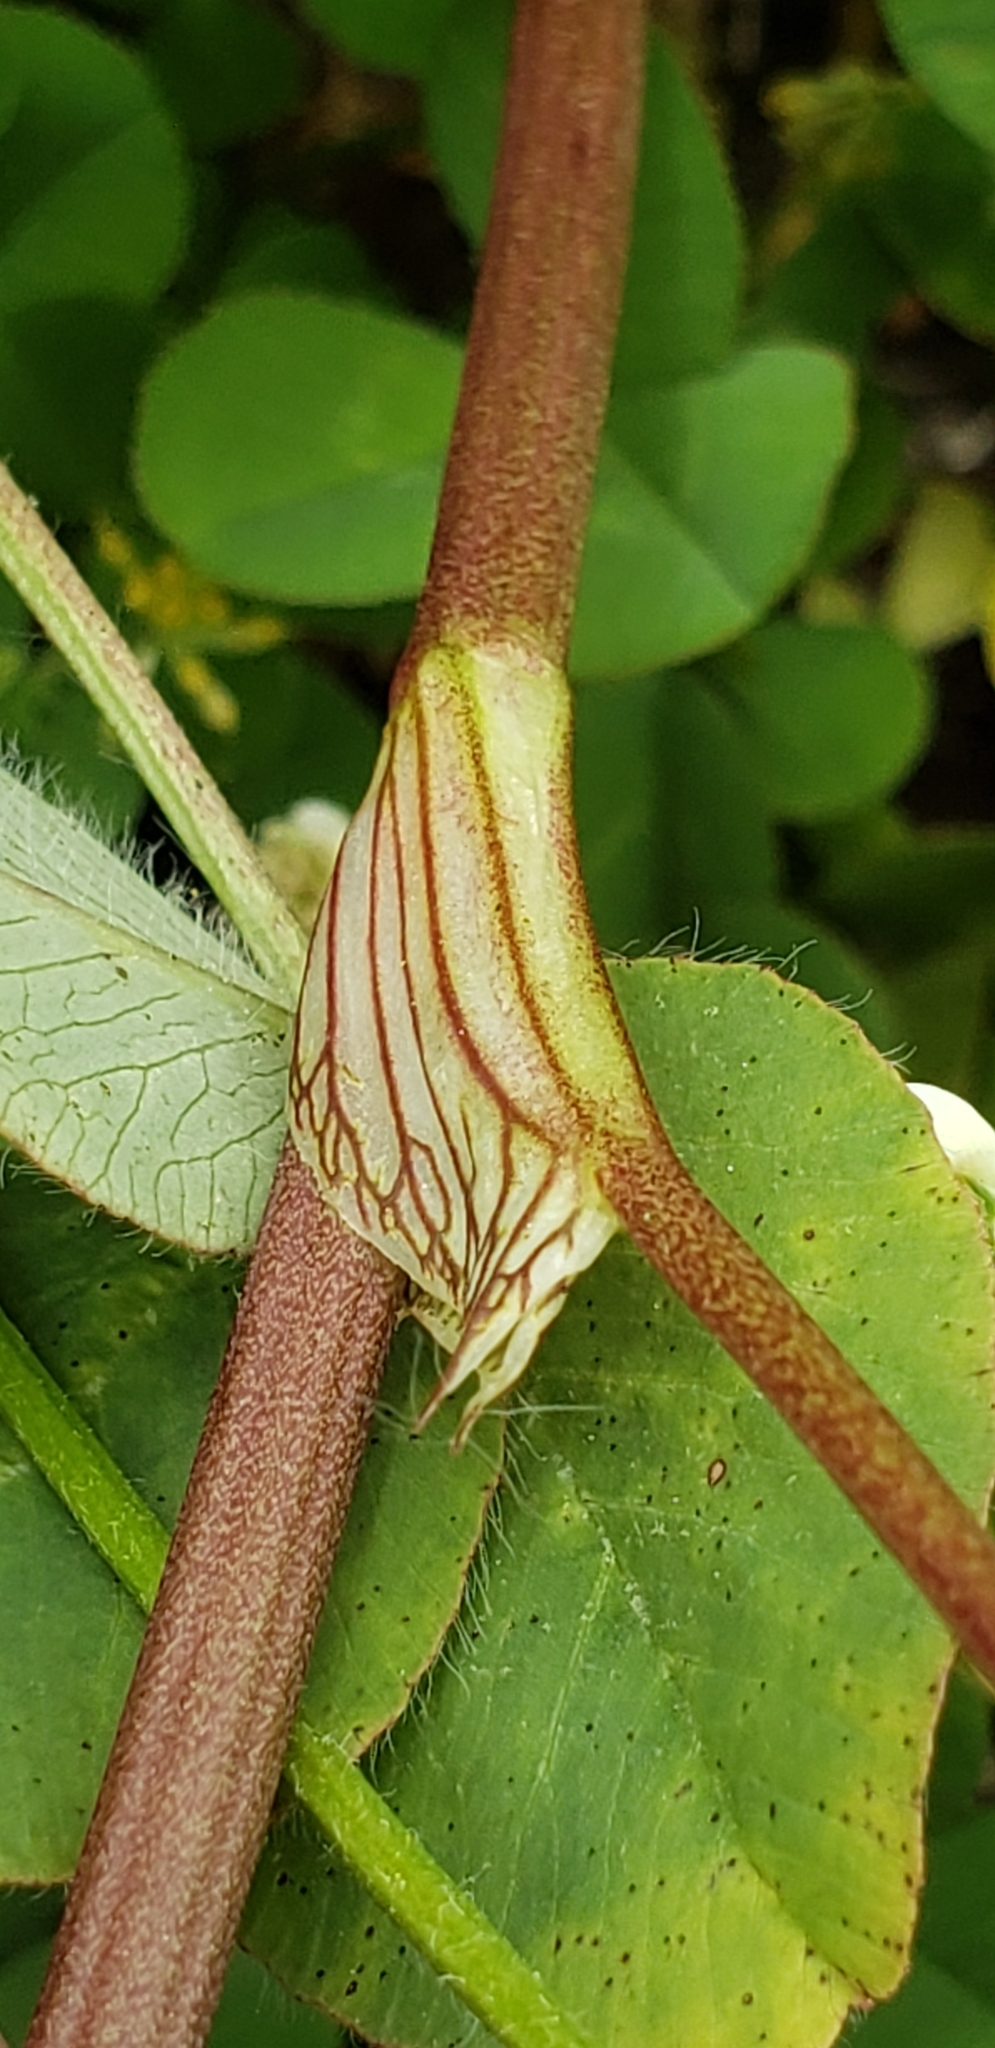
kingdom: Plantae
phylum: Tracheophyta
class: Magnoliopsida
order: Fabales
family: Fabaceae
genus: Trifolium
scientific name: Trifolium pratense
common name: Red clover
